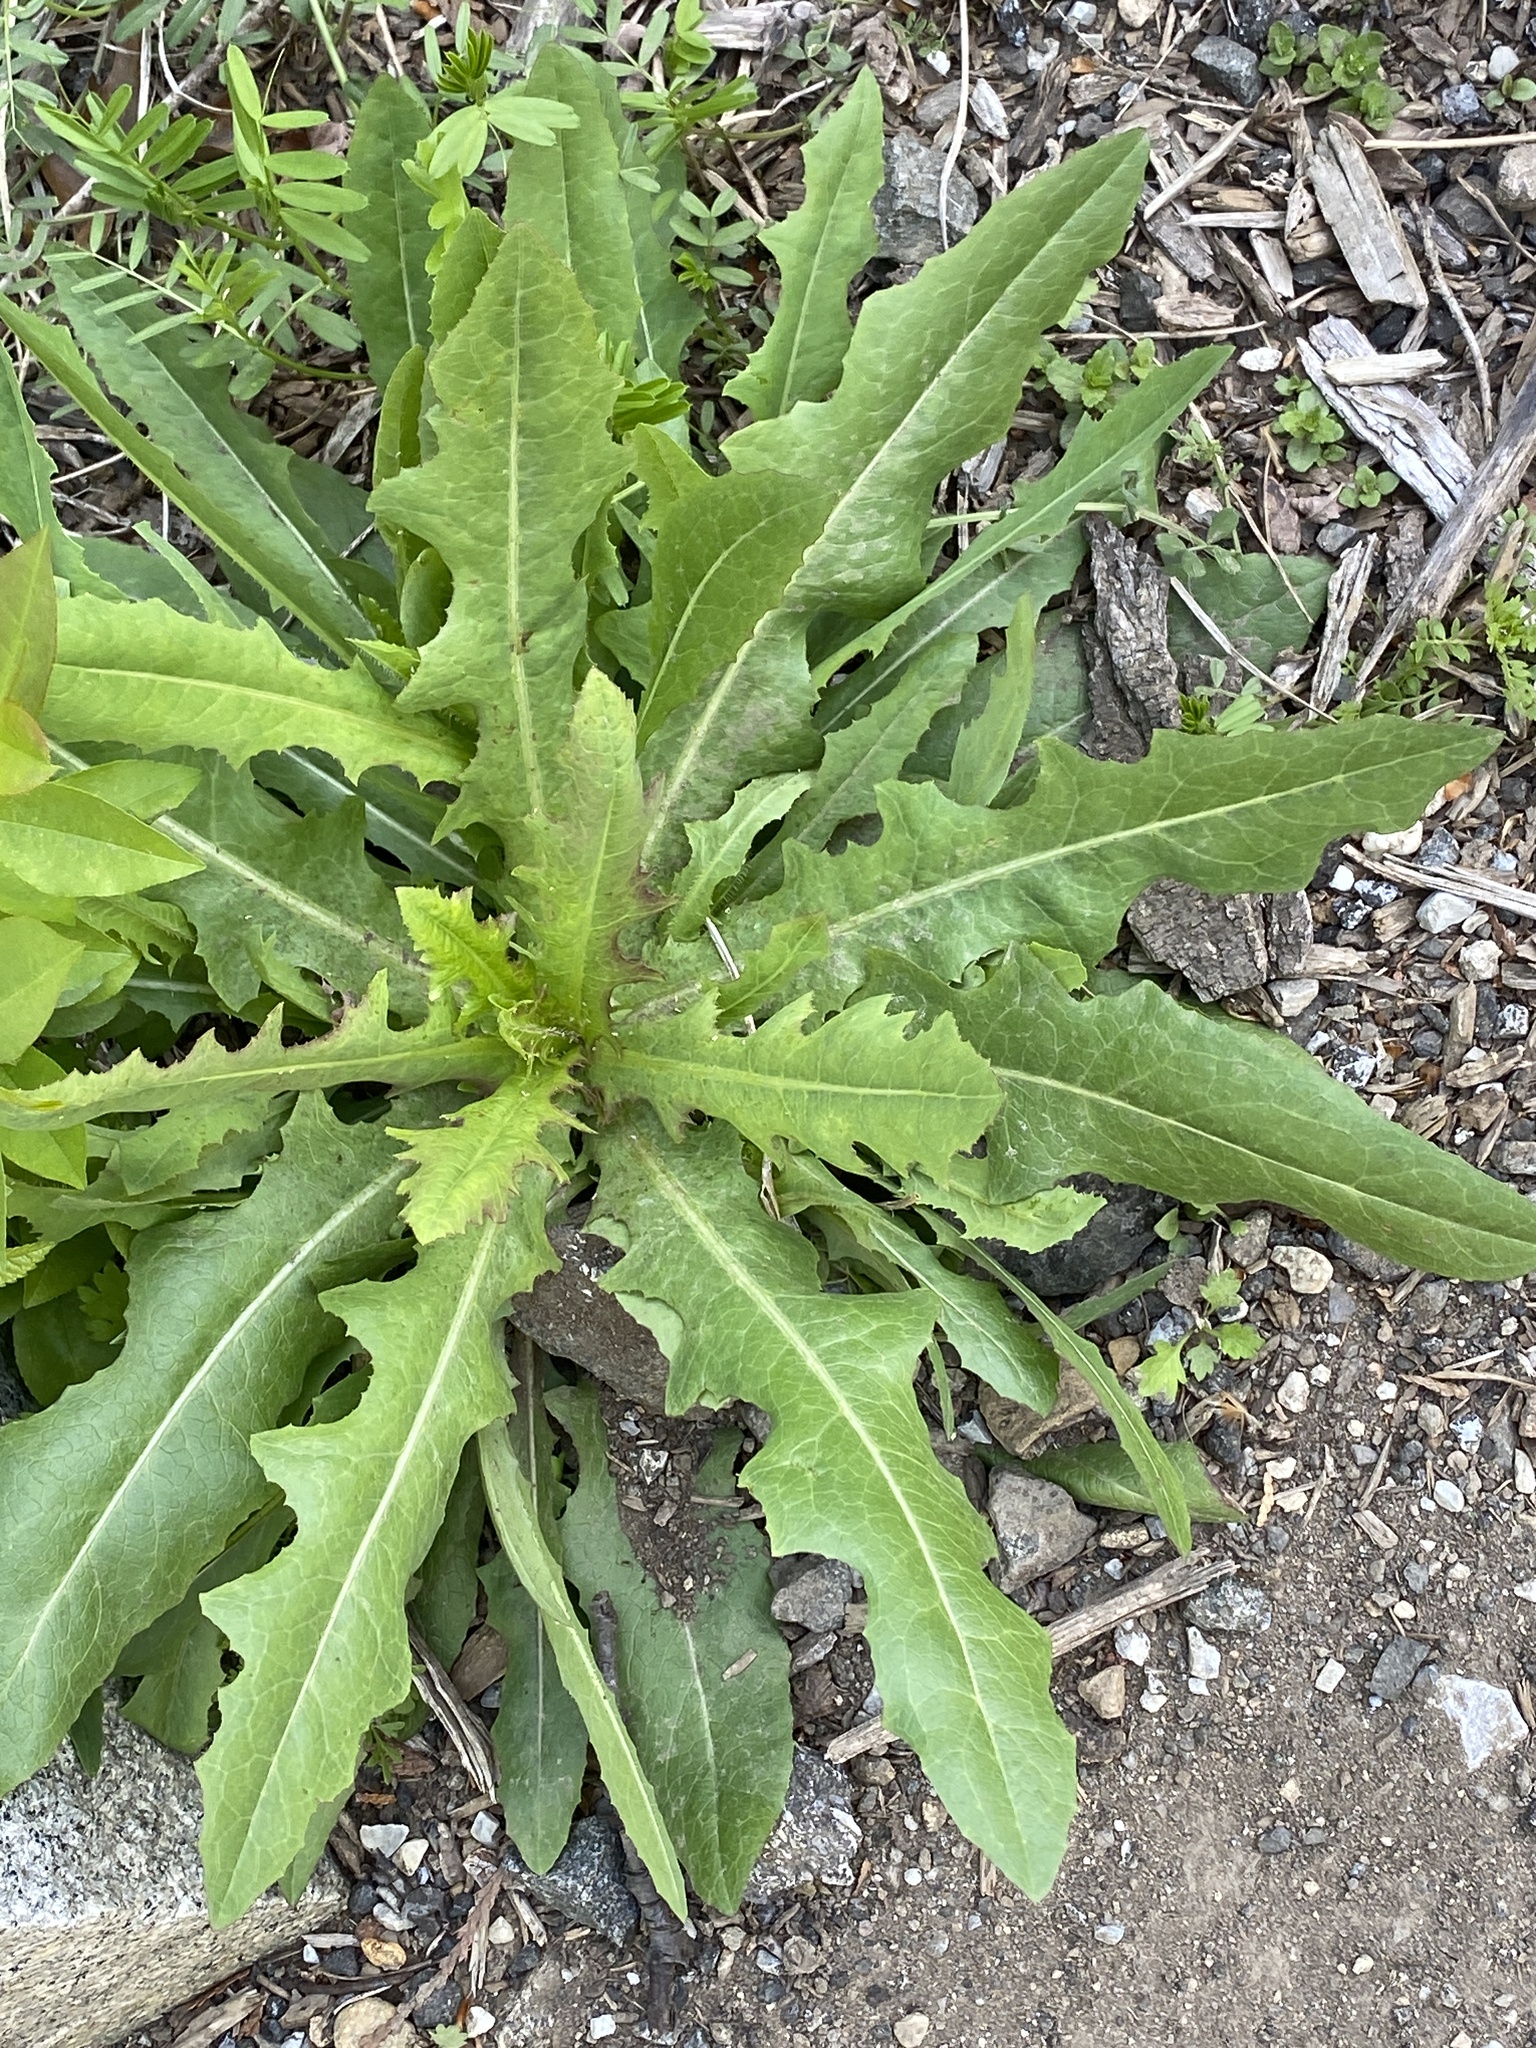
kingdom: Plantae
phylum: Tracheophyta
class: Magnoliopsida
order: Asterales
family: Asteraceae
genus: Lactuca
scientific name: Lactuca serriola
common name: Prickly lettuce
